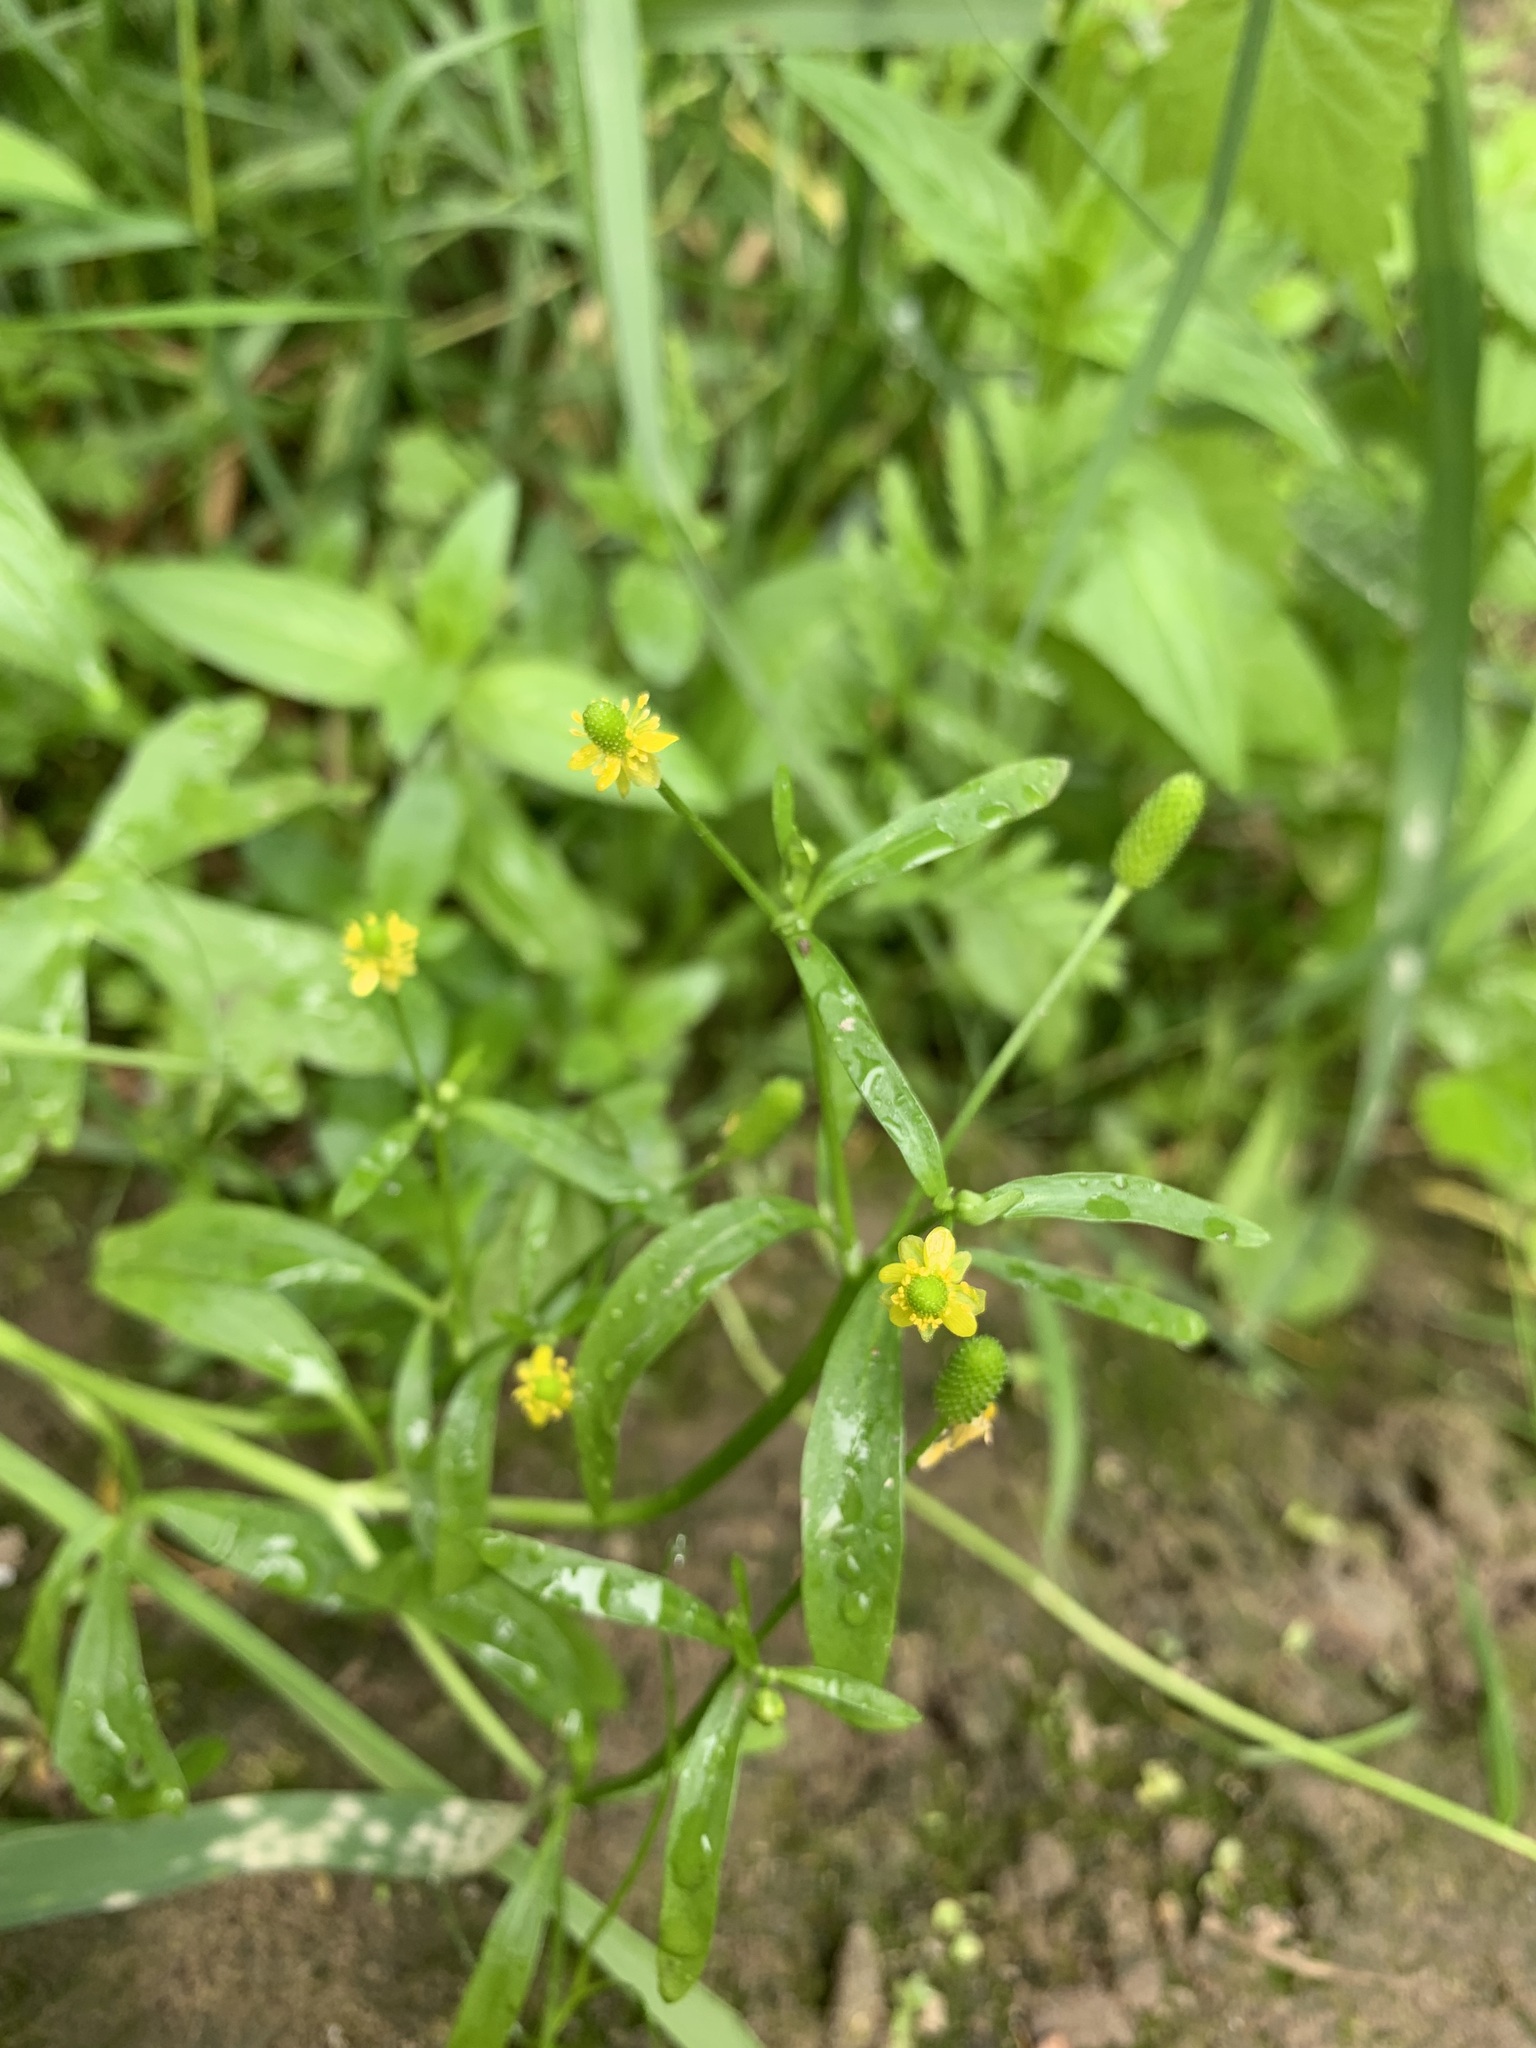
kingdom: Plantae
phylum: Tracheophyta
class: Magnoliopsida
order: Ranunculales
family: Ranunculaceae
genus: Ranunculus
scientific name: Ranunculus sceleratus
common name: Celery-leaved buttercup
